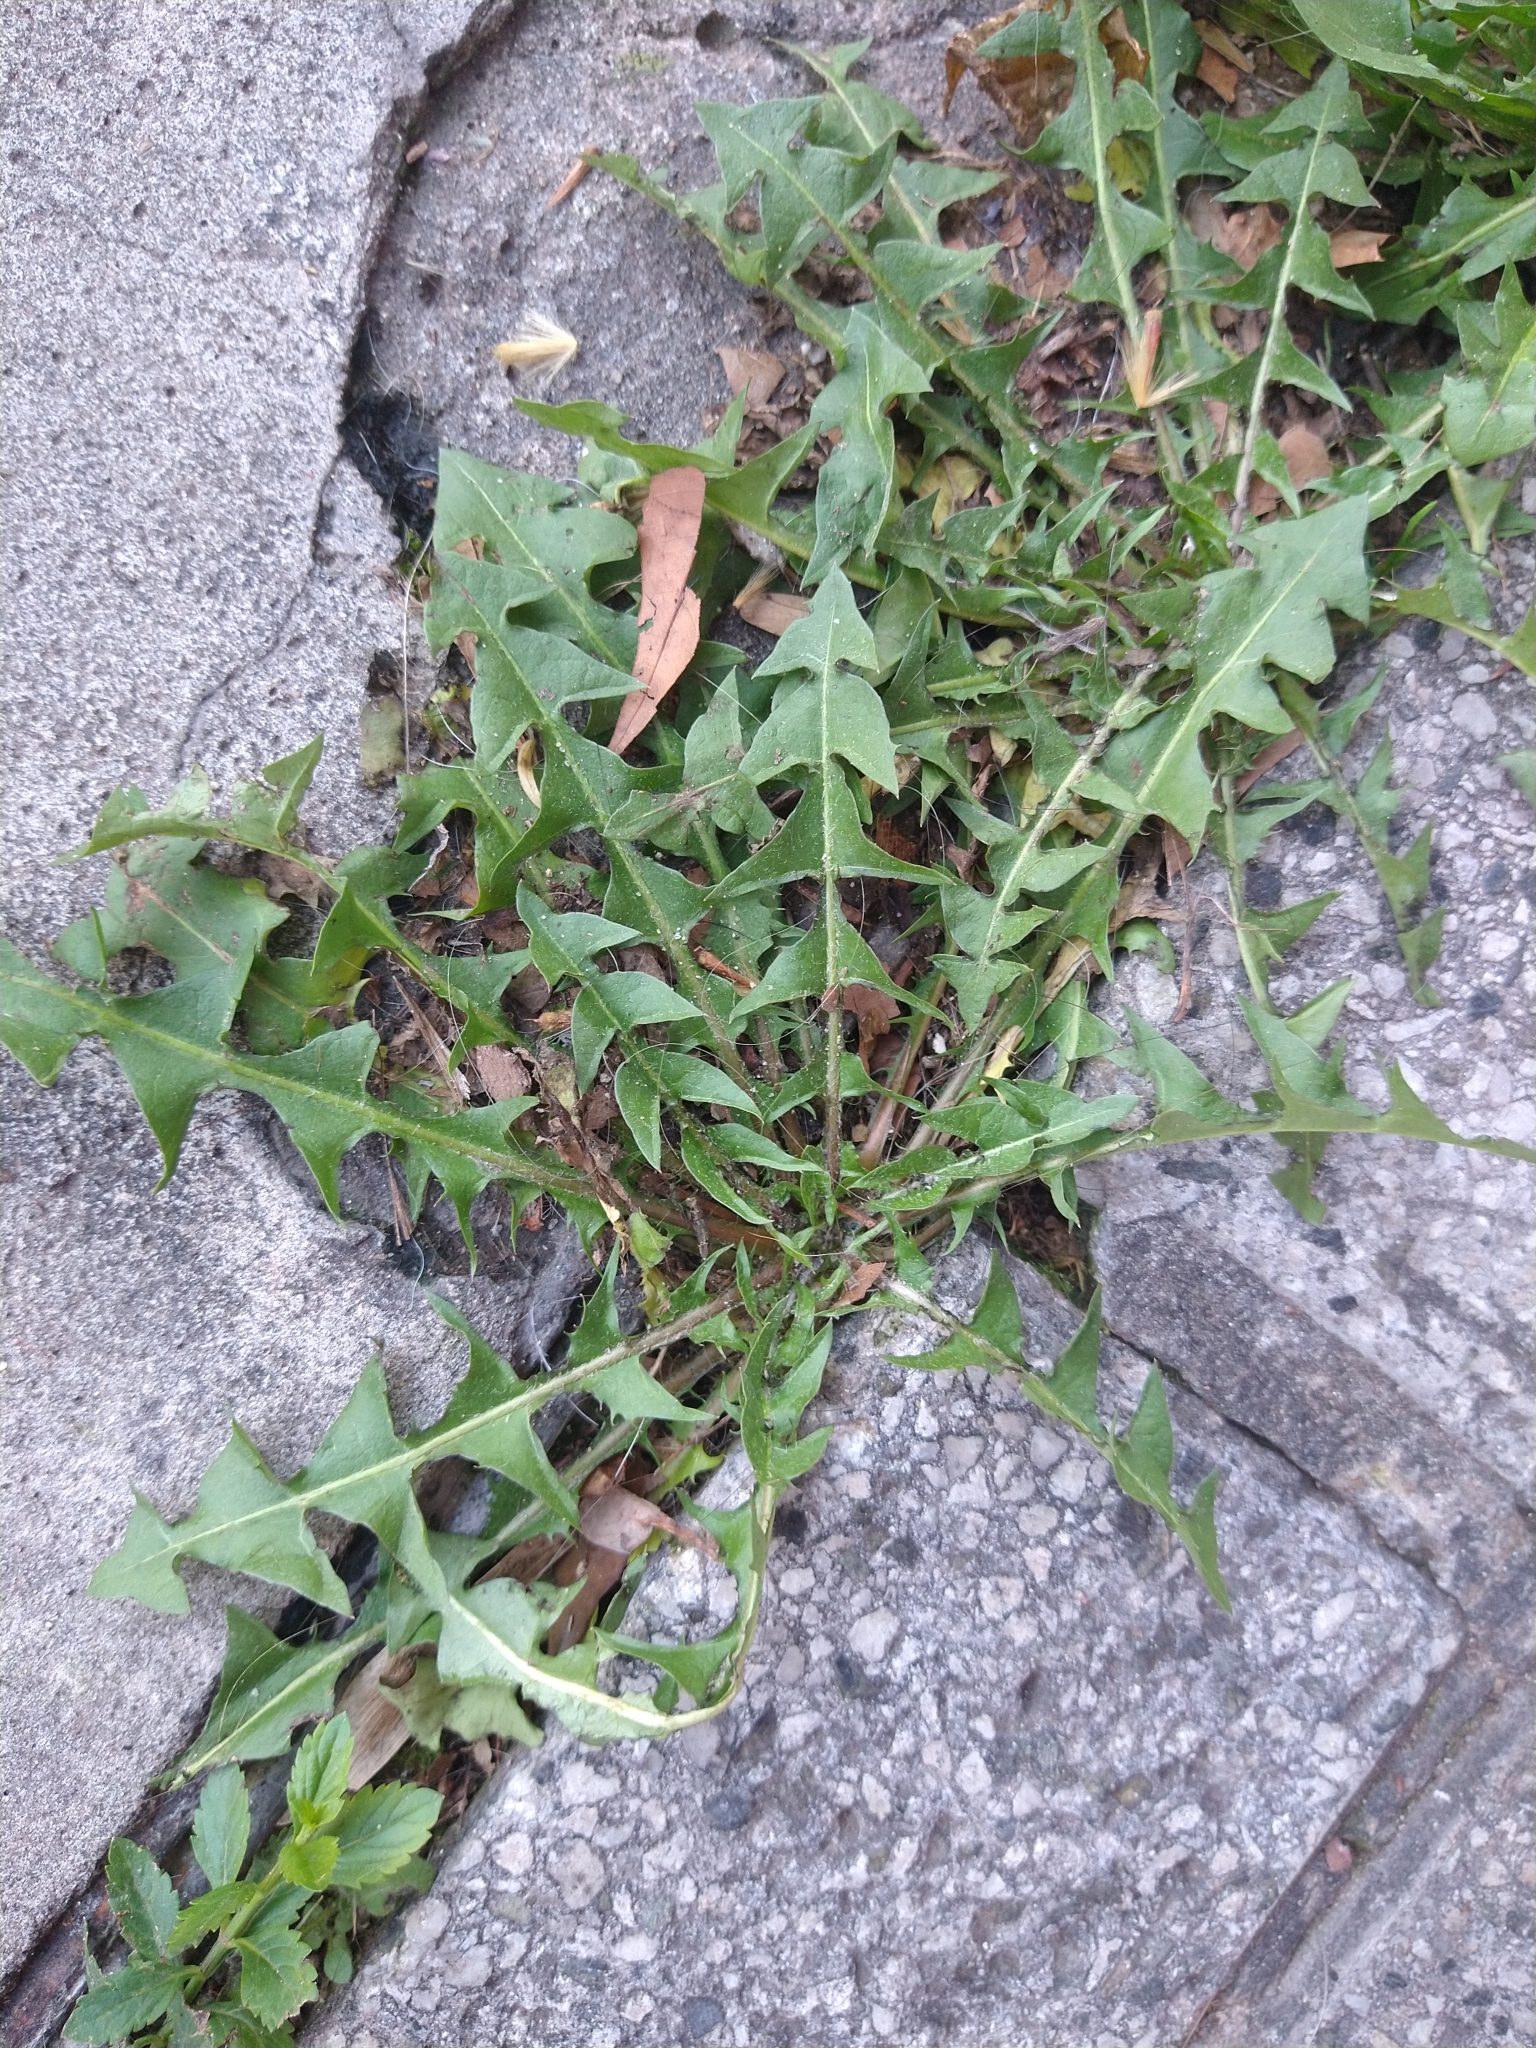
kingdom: Plantae
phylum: Tracheophyta
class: Magnoliopsida
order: Asterales
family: Asteraceae
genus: Taraxacum
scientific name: Taraxacum officinale
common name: Common dandelion
